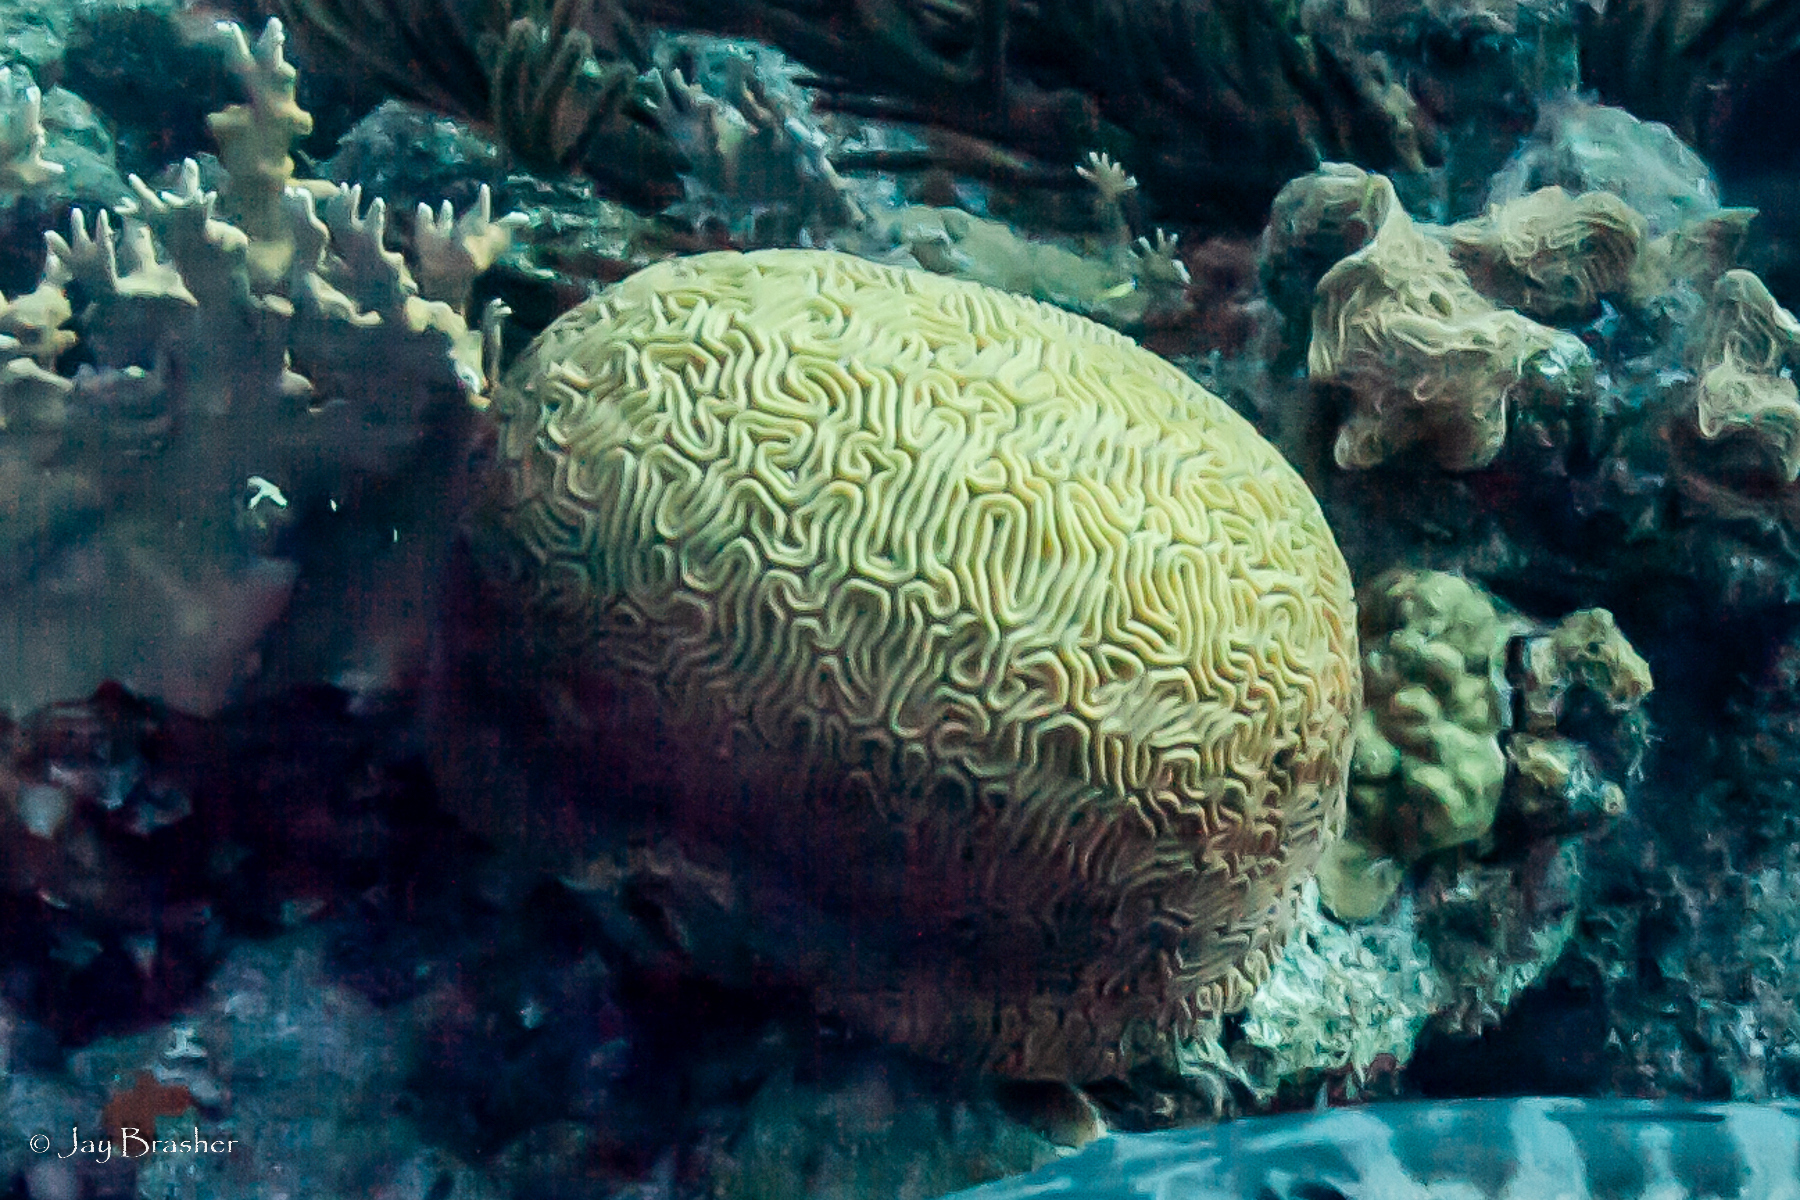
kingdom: Animalia
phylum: Cnidaria
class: Anthozoa
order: Scleractinia
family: Faviidae
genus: Diploria
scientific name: Diploria labyrinthiformis
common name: Grooved brain coral
